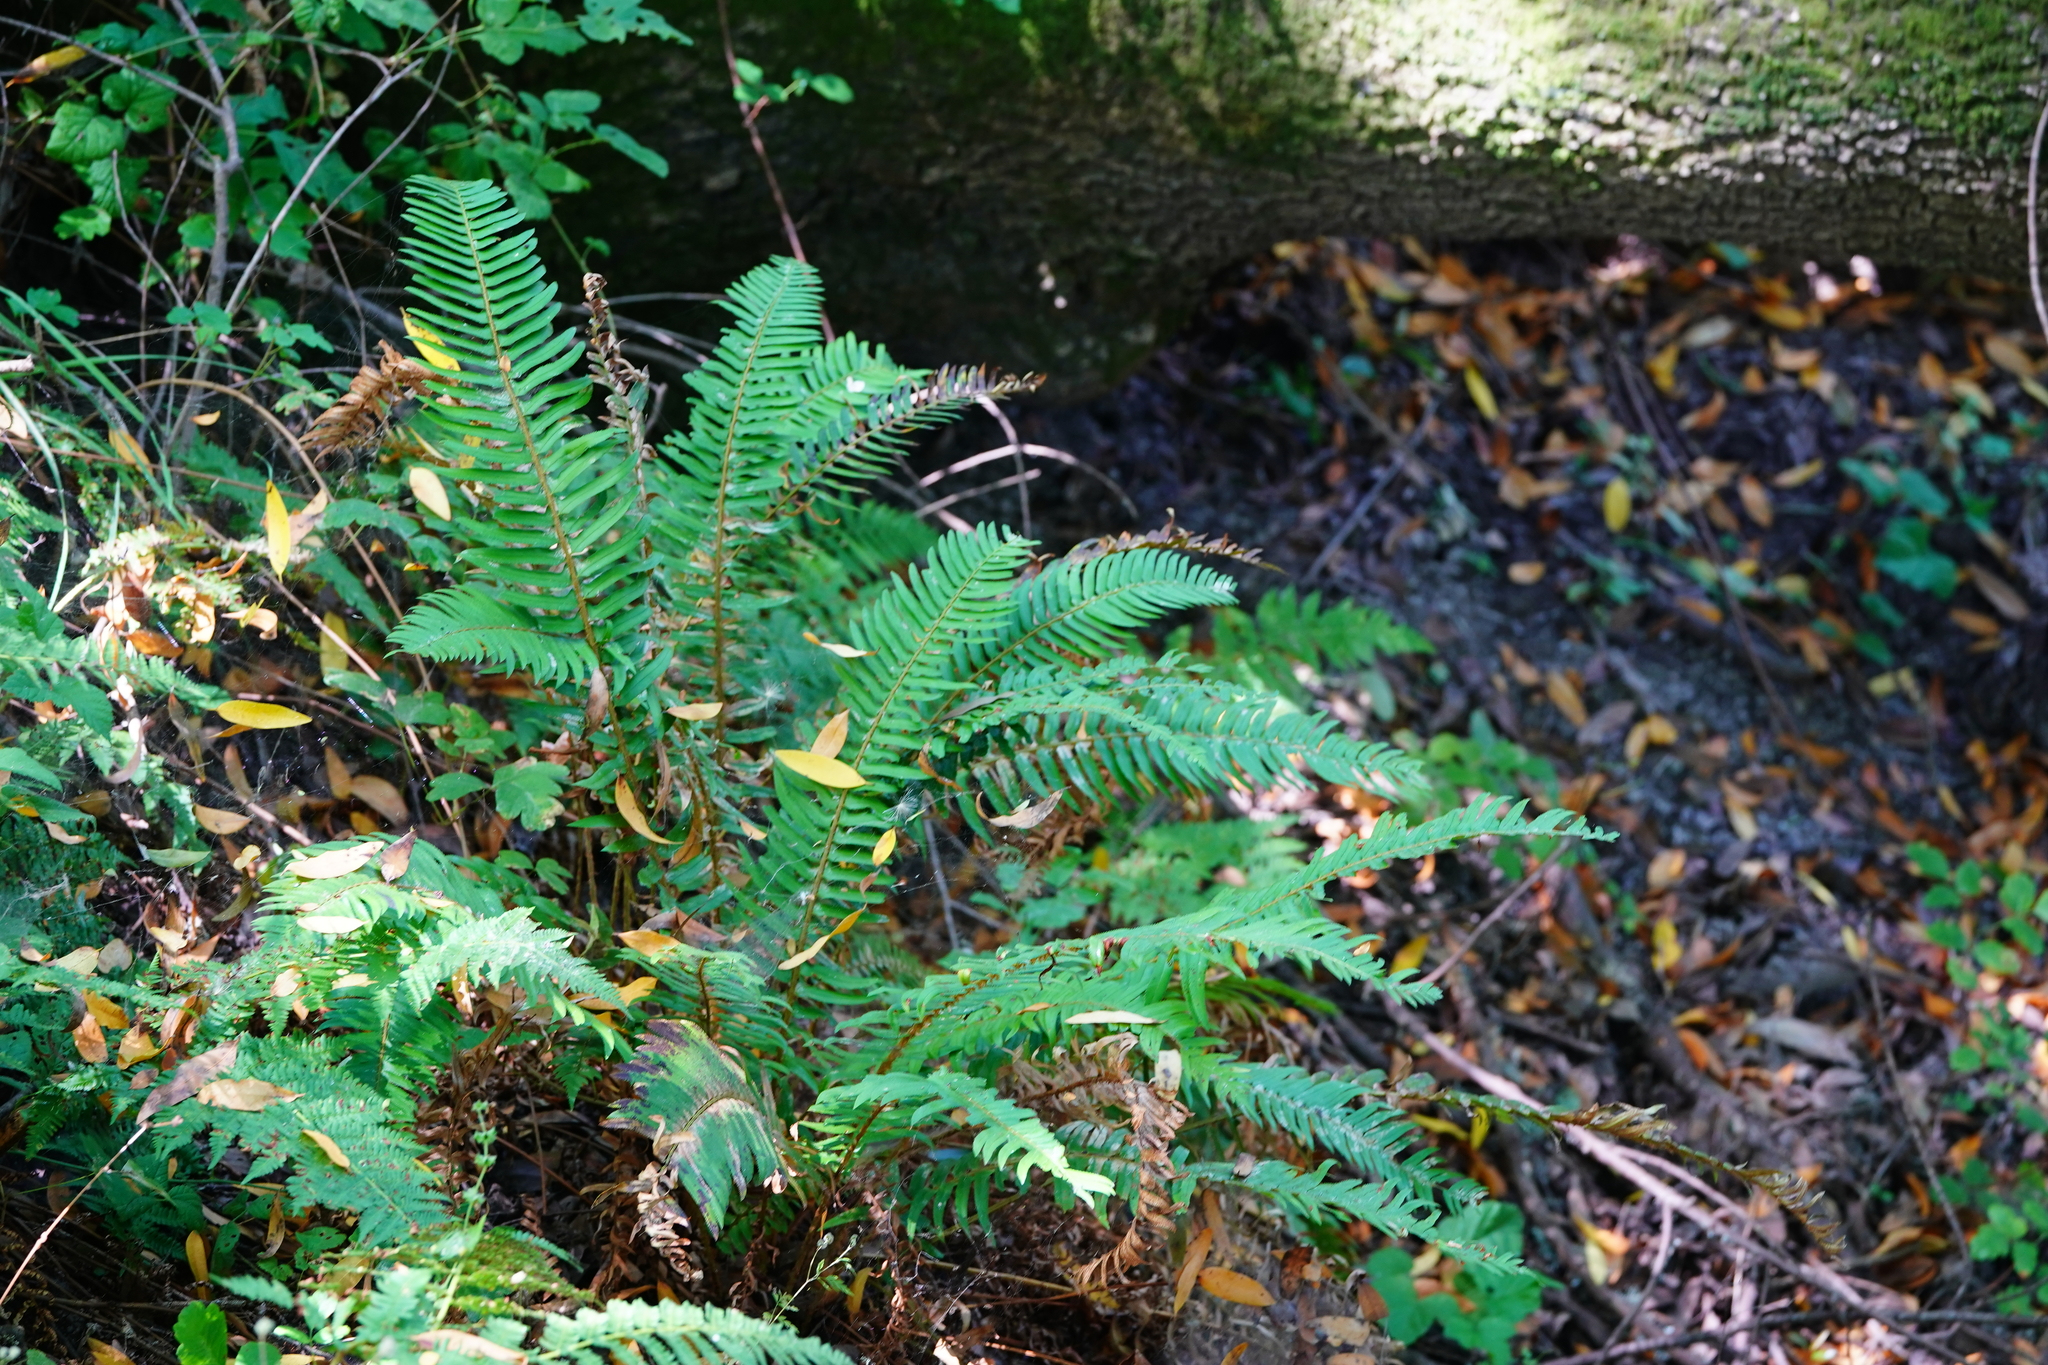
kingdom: Plantae
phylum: Tracheophyta
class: Polypodiopsida
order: Polypodiales
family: Dryopteridaceae
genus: Polystichum
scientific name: Polystichum munitum
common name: Western sword-fern
